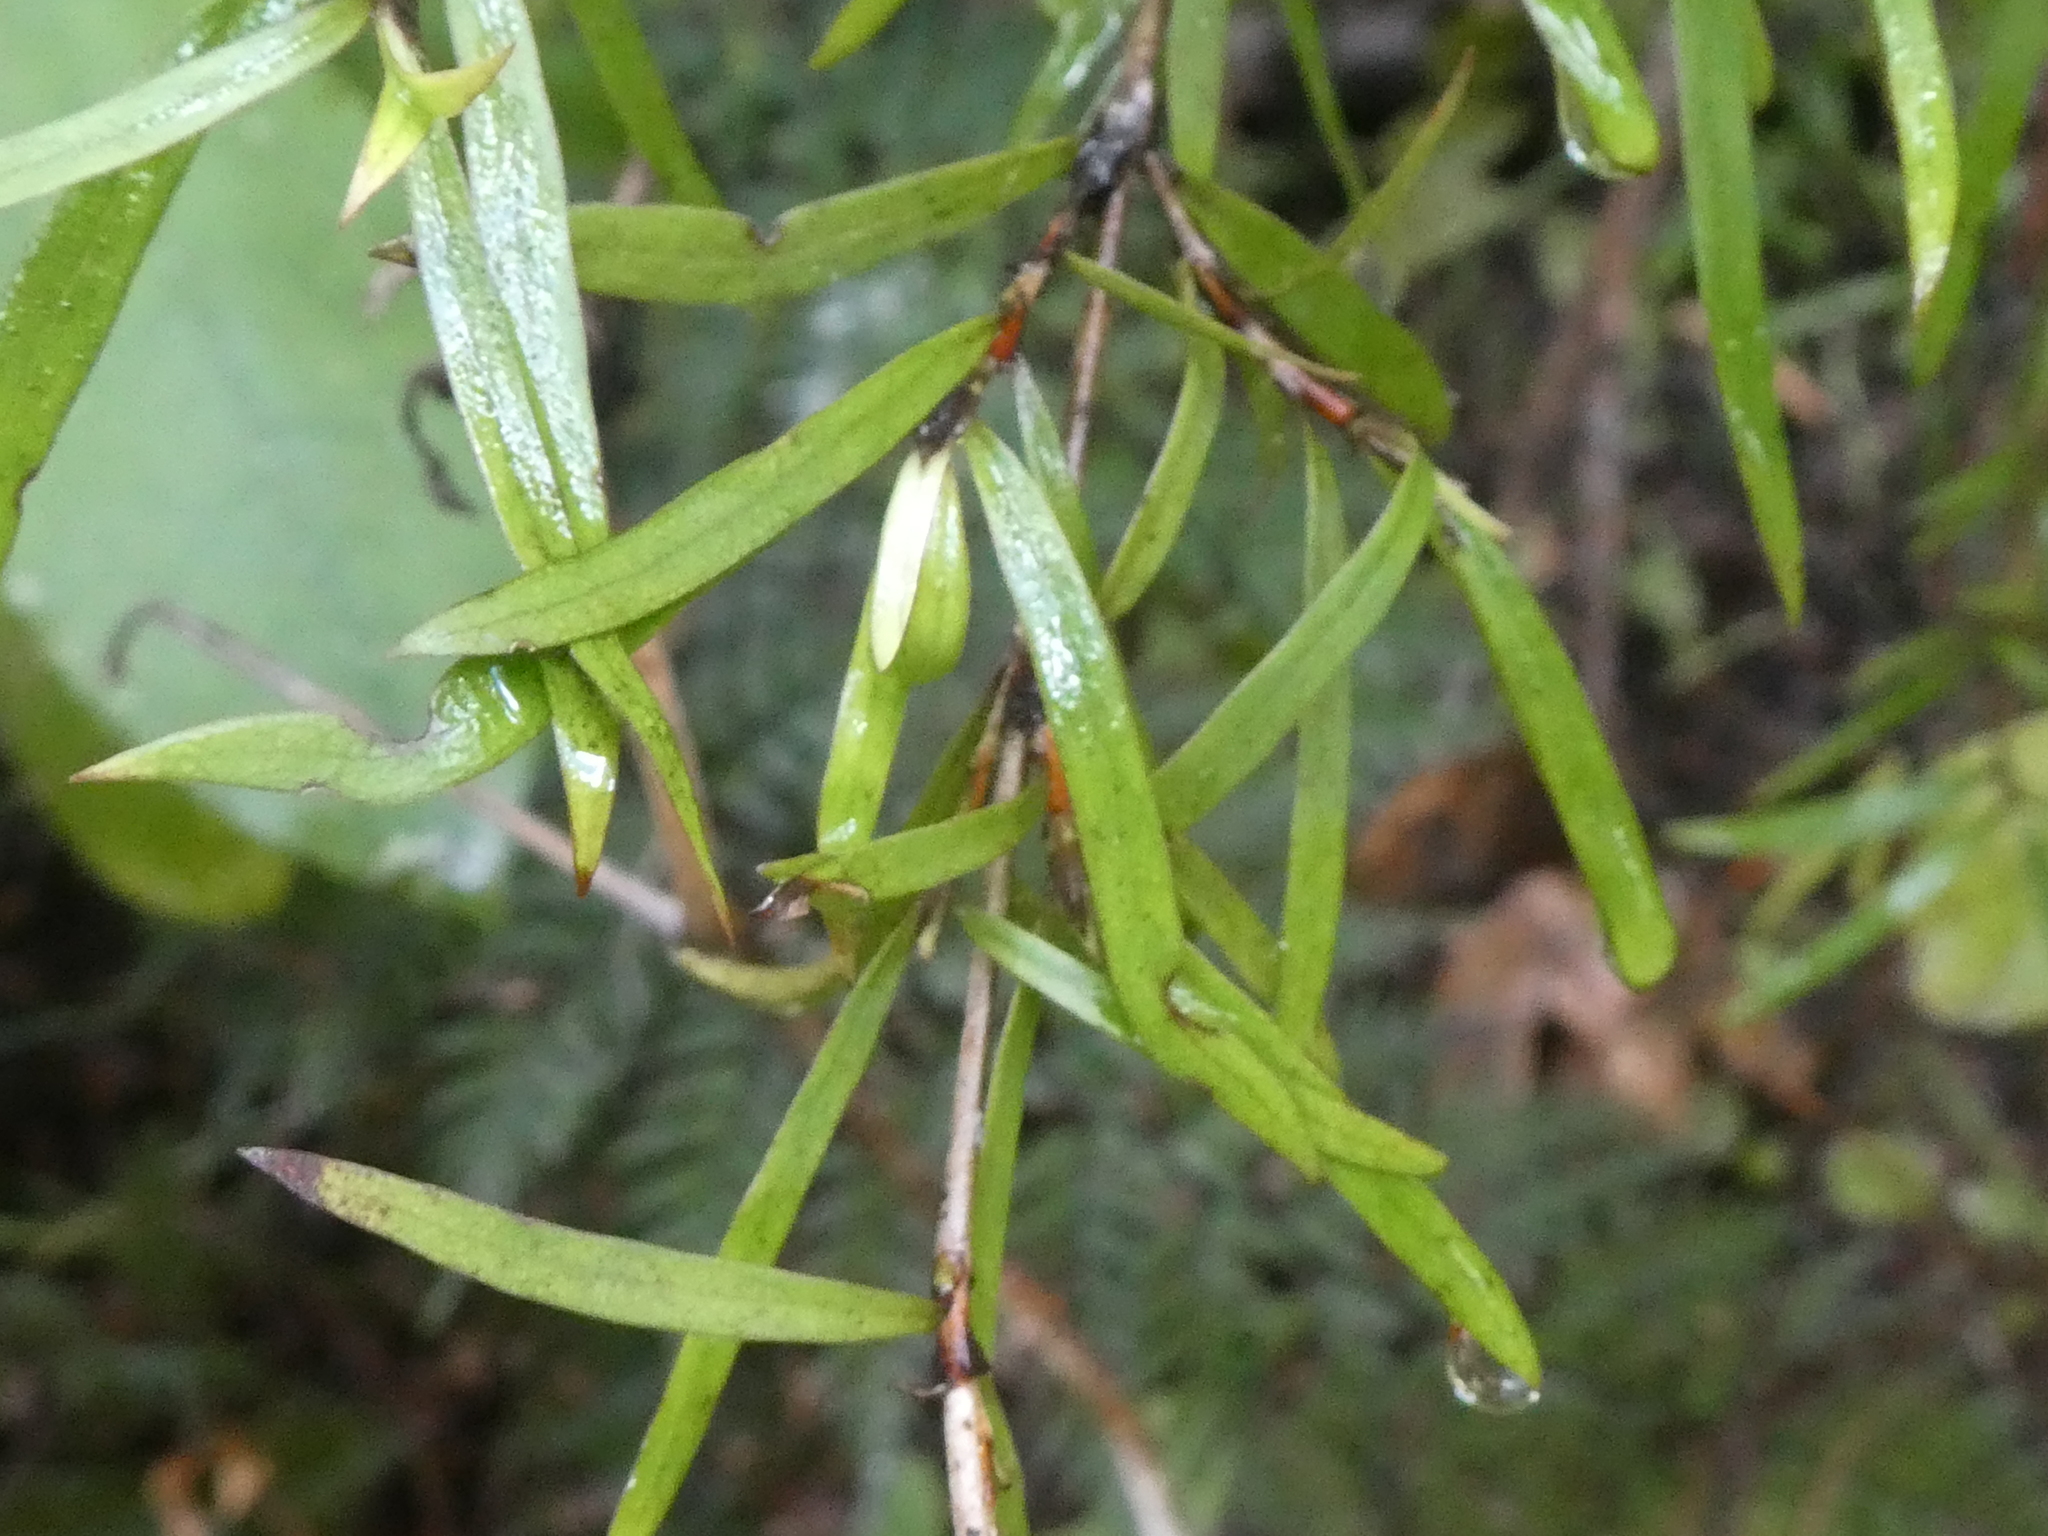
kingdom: Plantae
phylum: Tracheophyta
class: Magnoliopsida
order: Gentianales
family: Rubiaceae
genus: Coprosma
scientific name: Coprosma linariifolia
